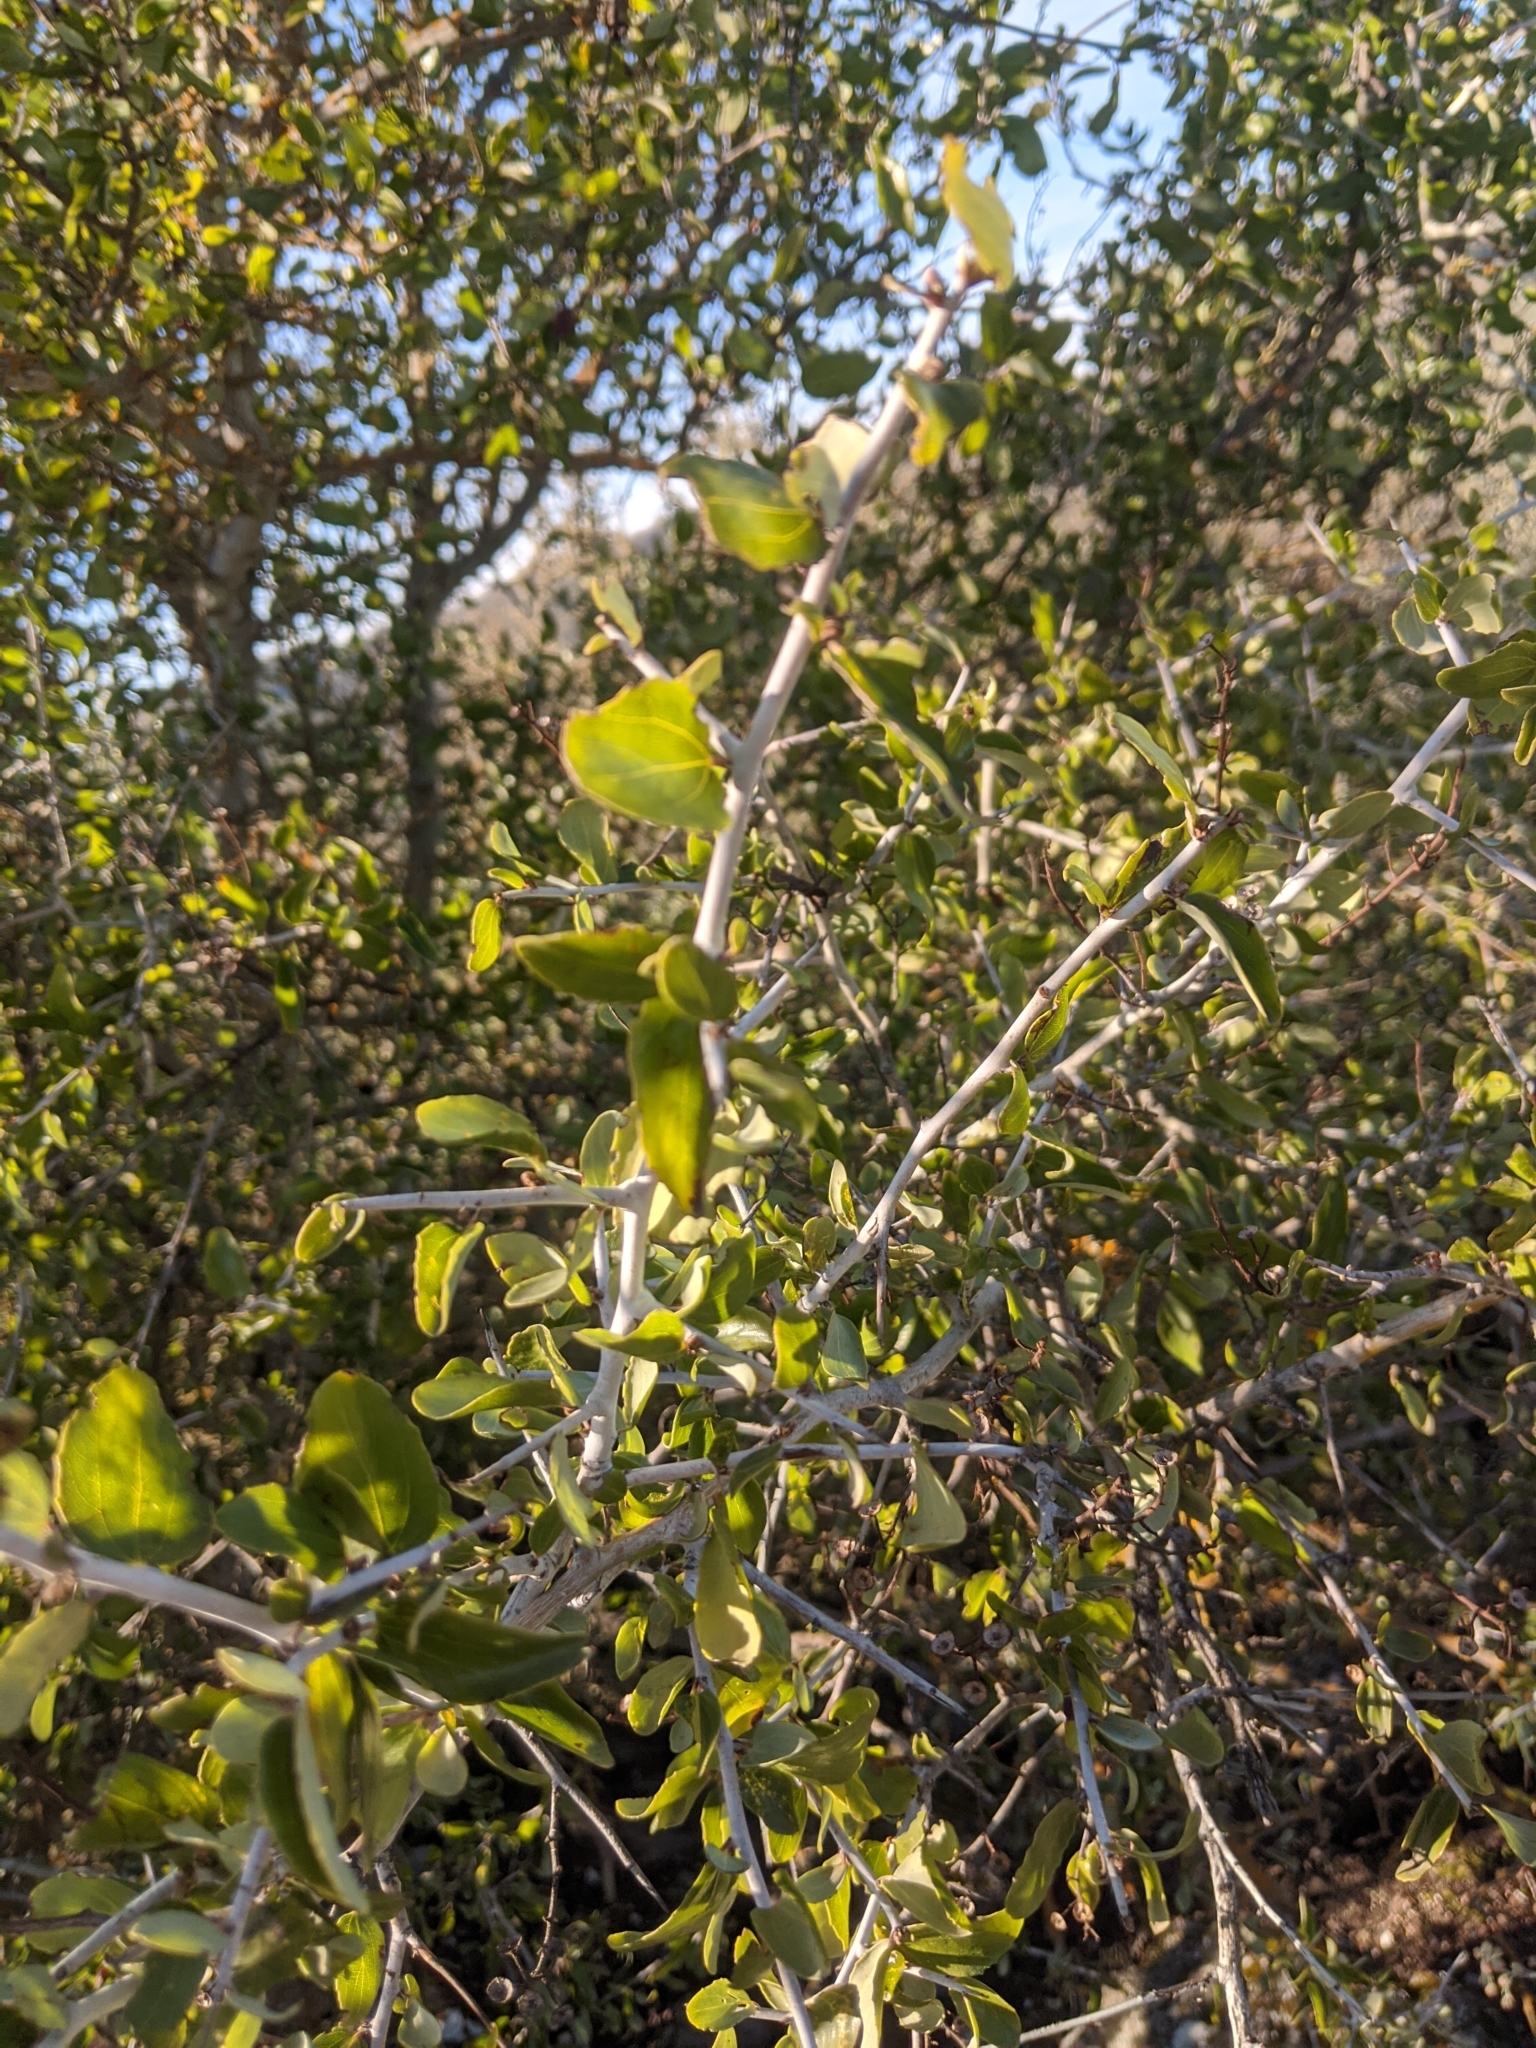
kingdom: Plantae
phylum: Tracheophyta
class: Magnoliopsida
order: Rosales
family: Rhamnaceae
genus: Ceanothus
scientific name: Ceanothus leucodermis
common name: Chaparral whitethorn
